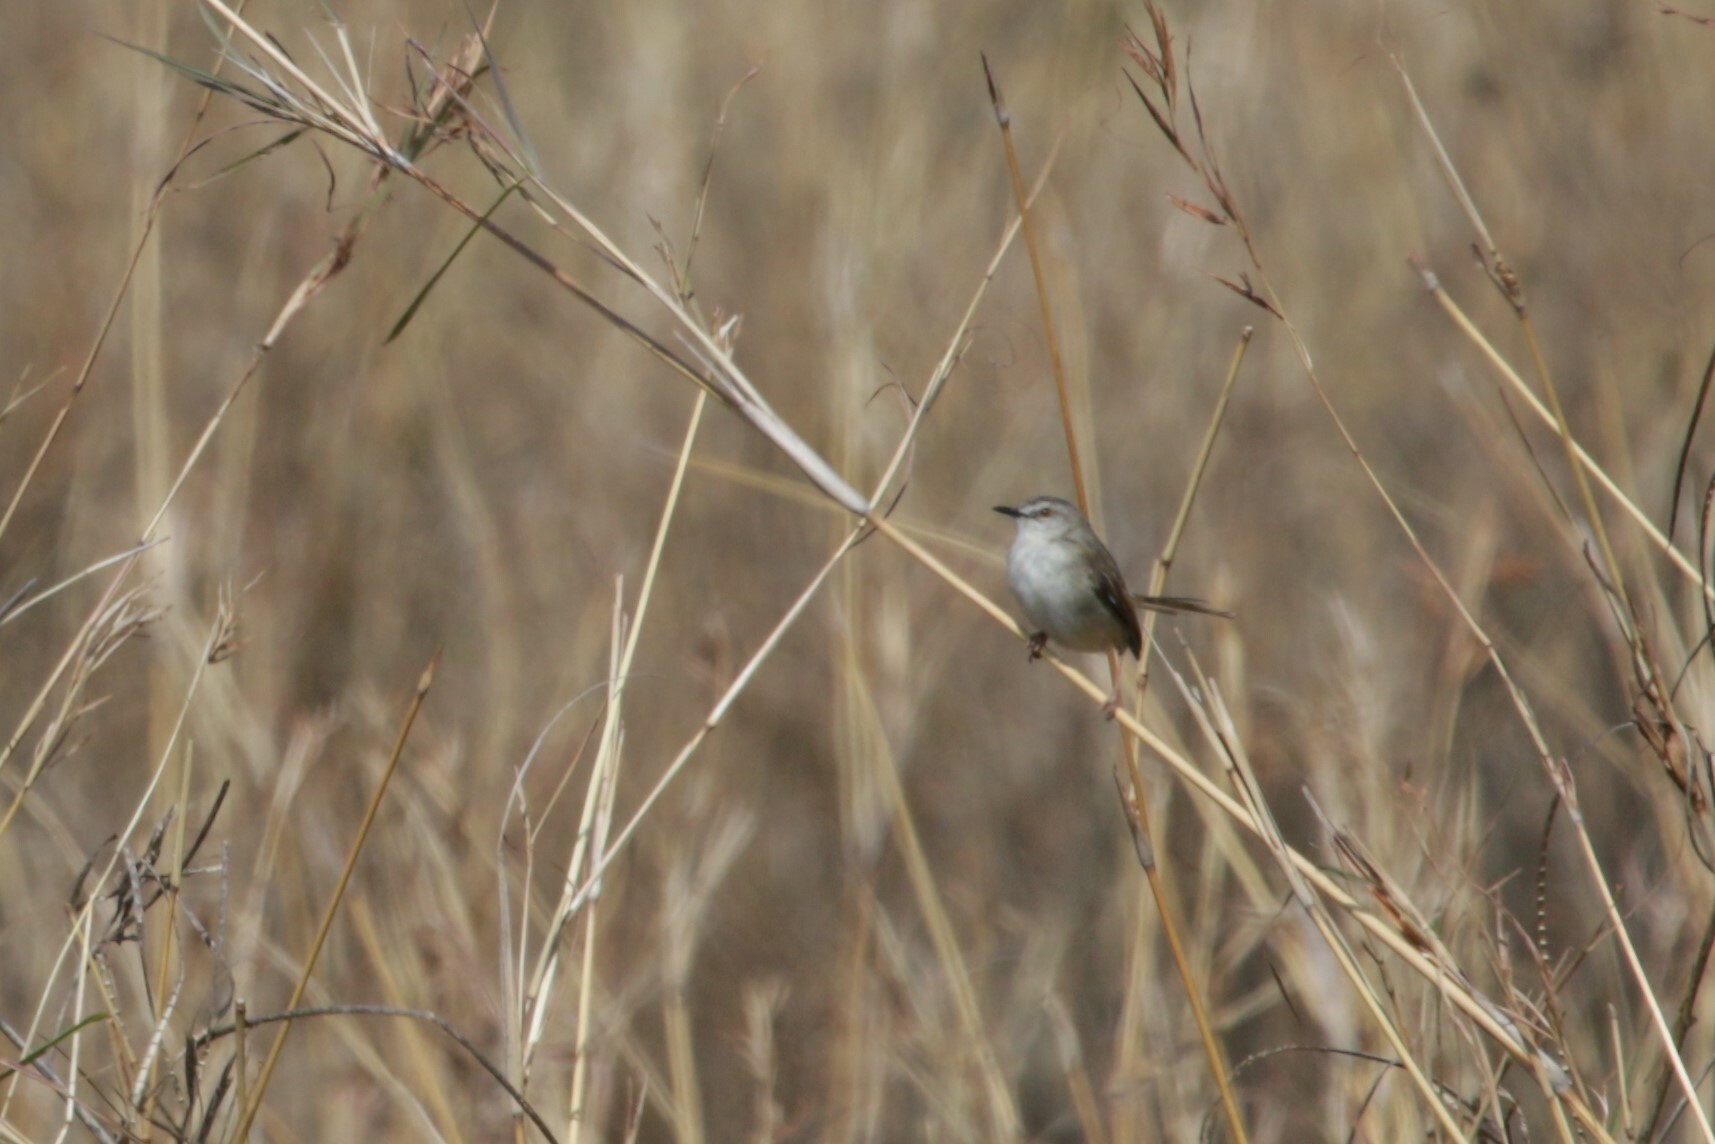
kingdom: Animalia
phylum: Chordata
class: Aves
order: Passeriformes
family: Cisticolidae
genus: Prinia
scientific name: Prinia subflava
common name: Tawny-flanked prinia
